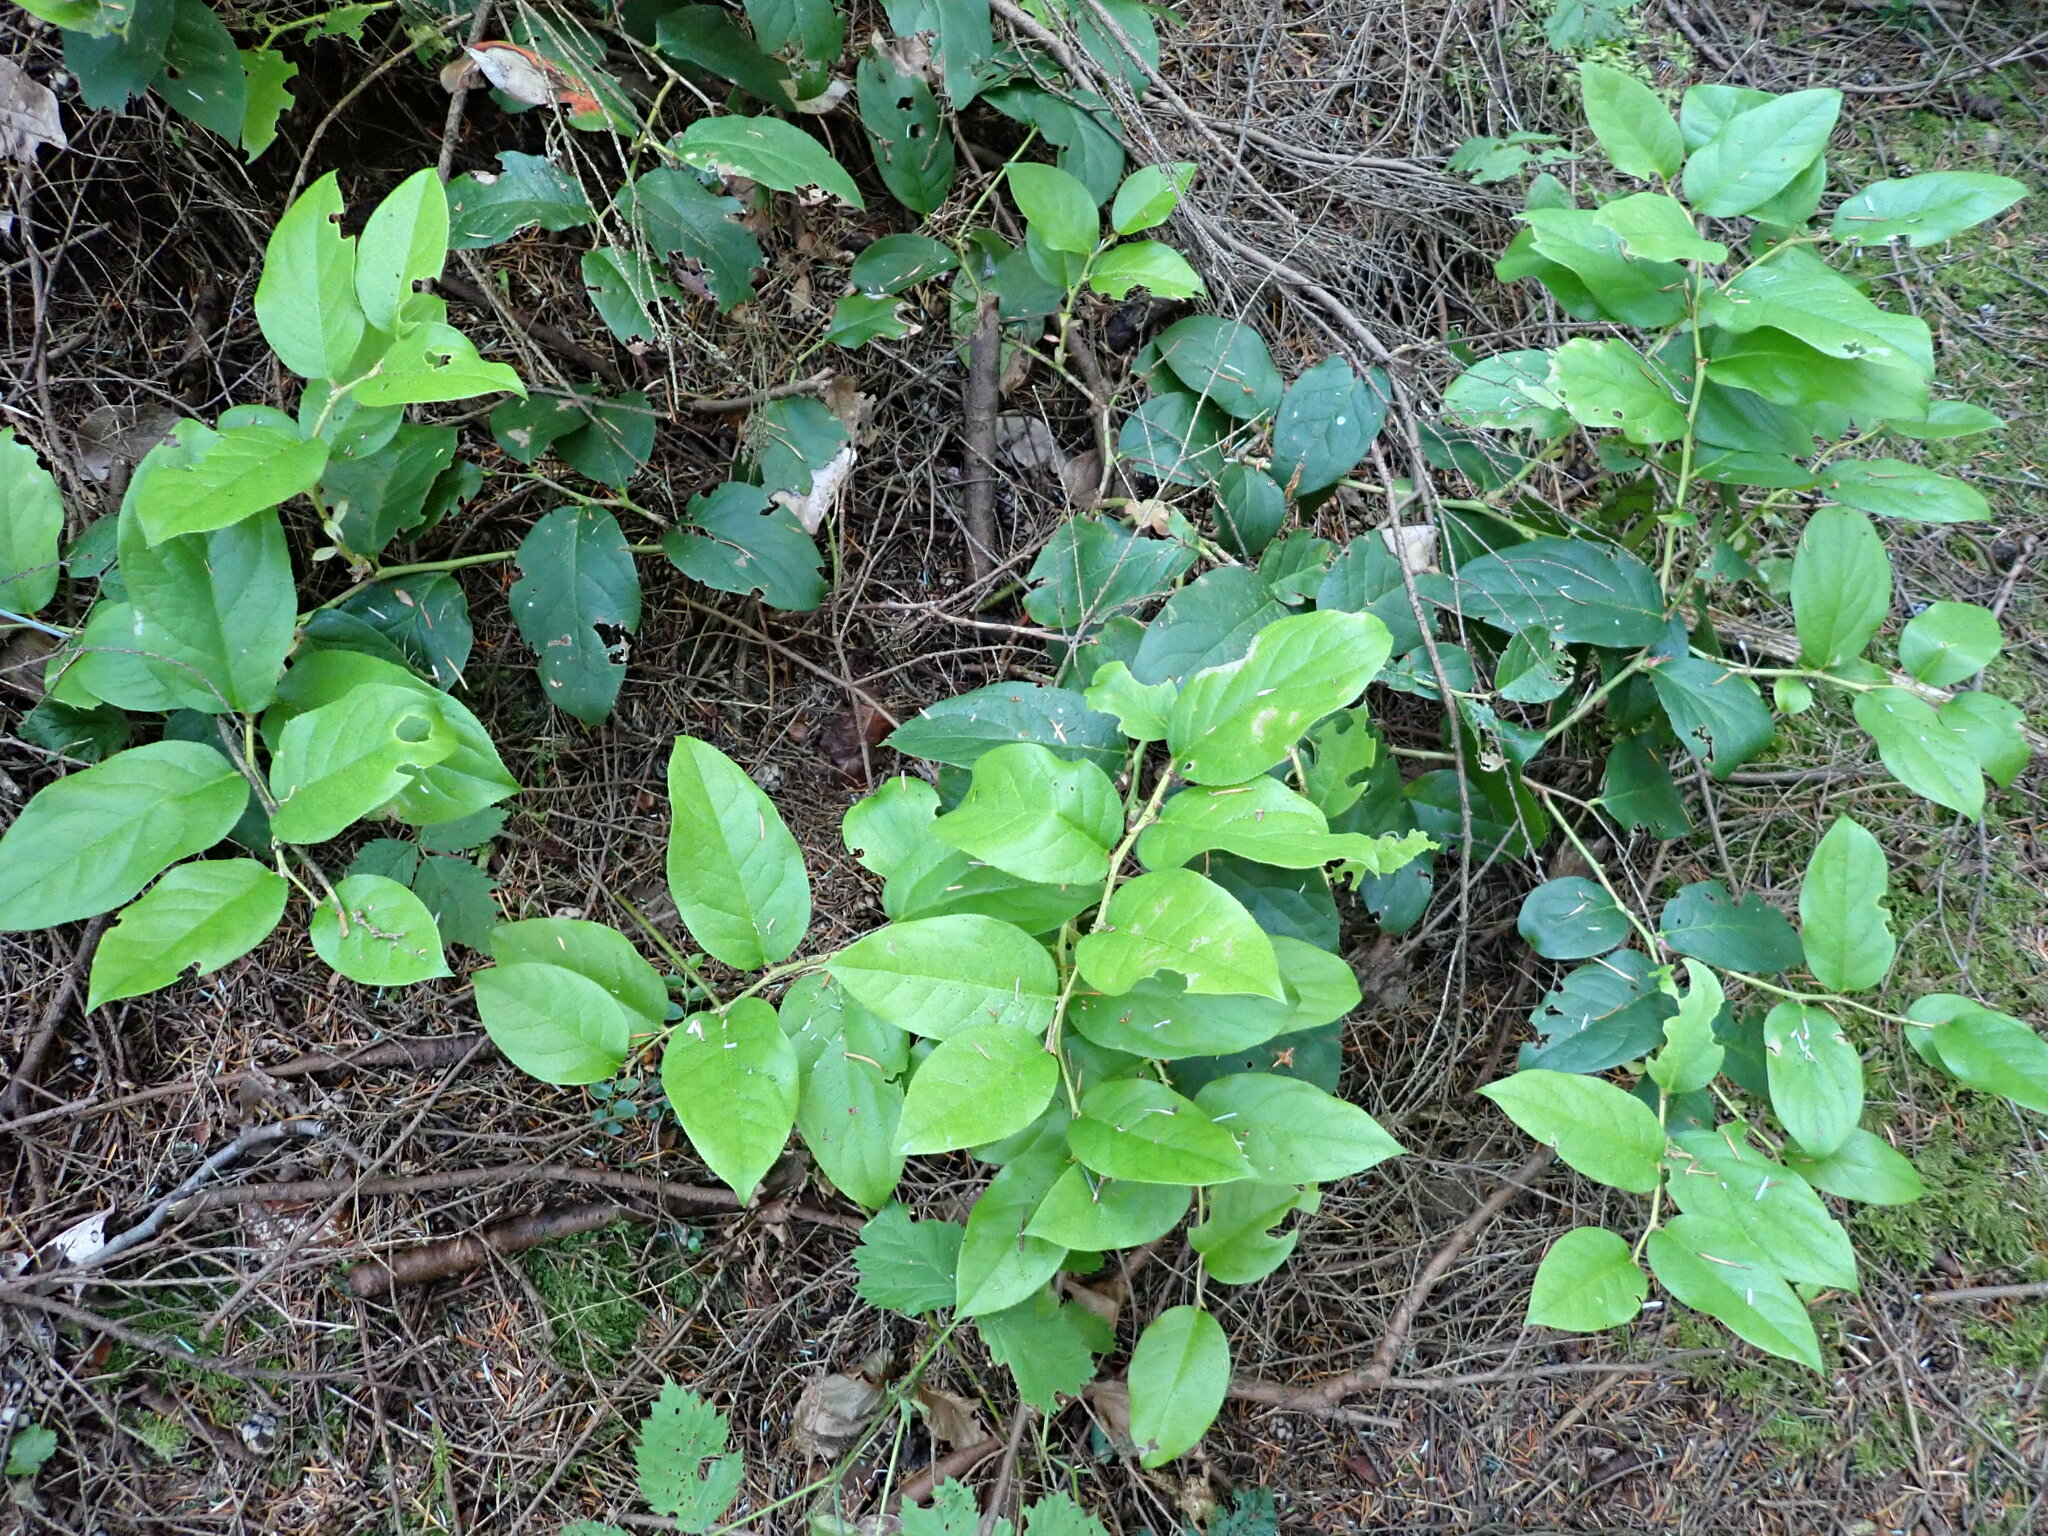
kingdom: Plantae
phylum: Tracheophyta
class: Magnoliopsida
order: Ericales
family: Ericaceae
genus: Gaultheria
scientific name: Gaultheria shallon
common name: Shallon
